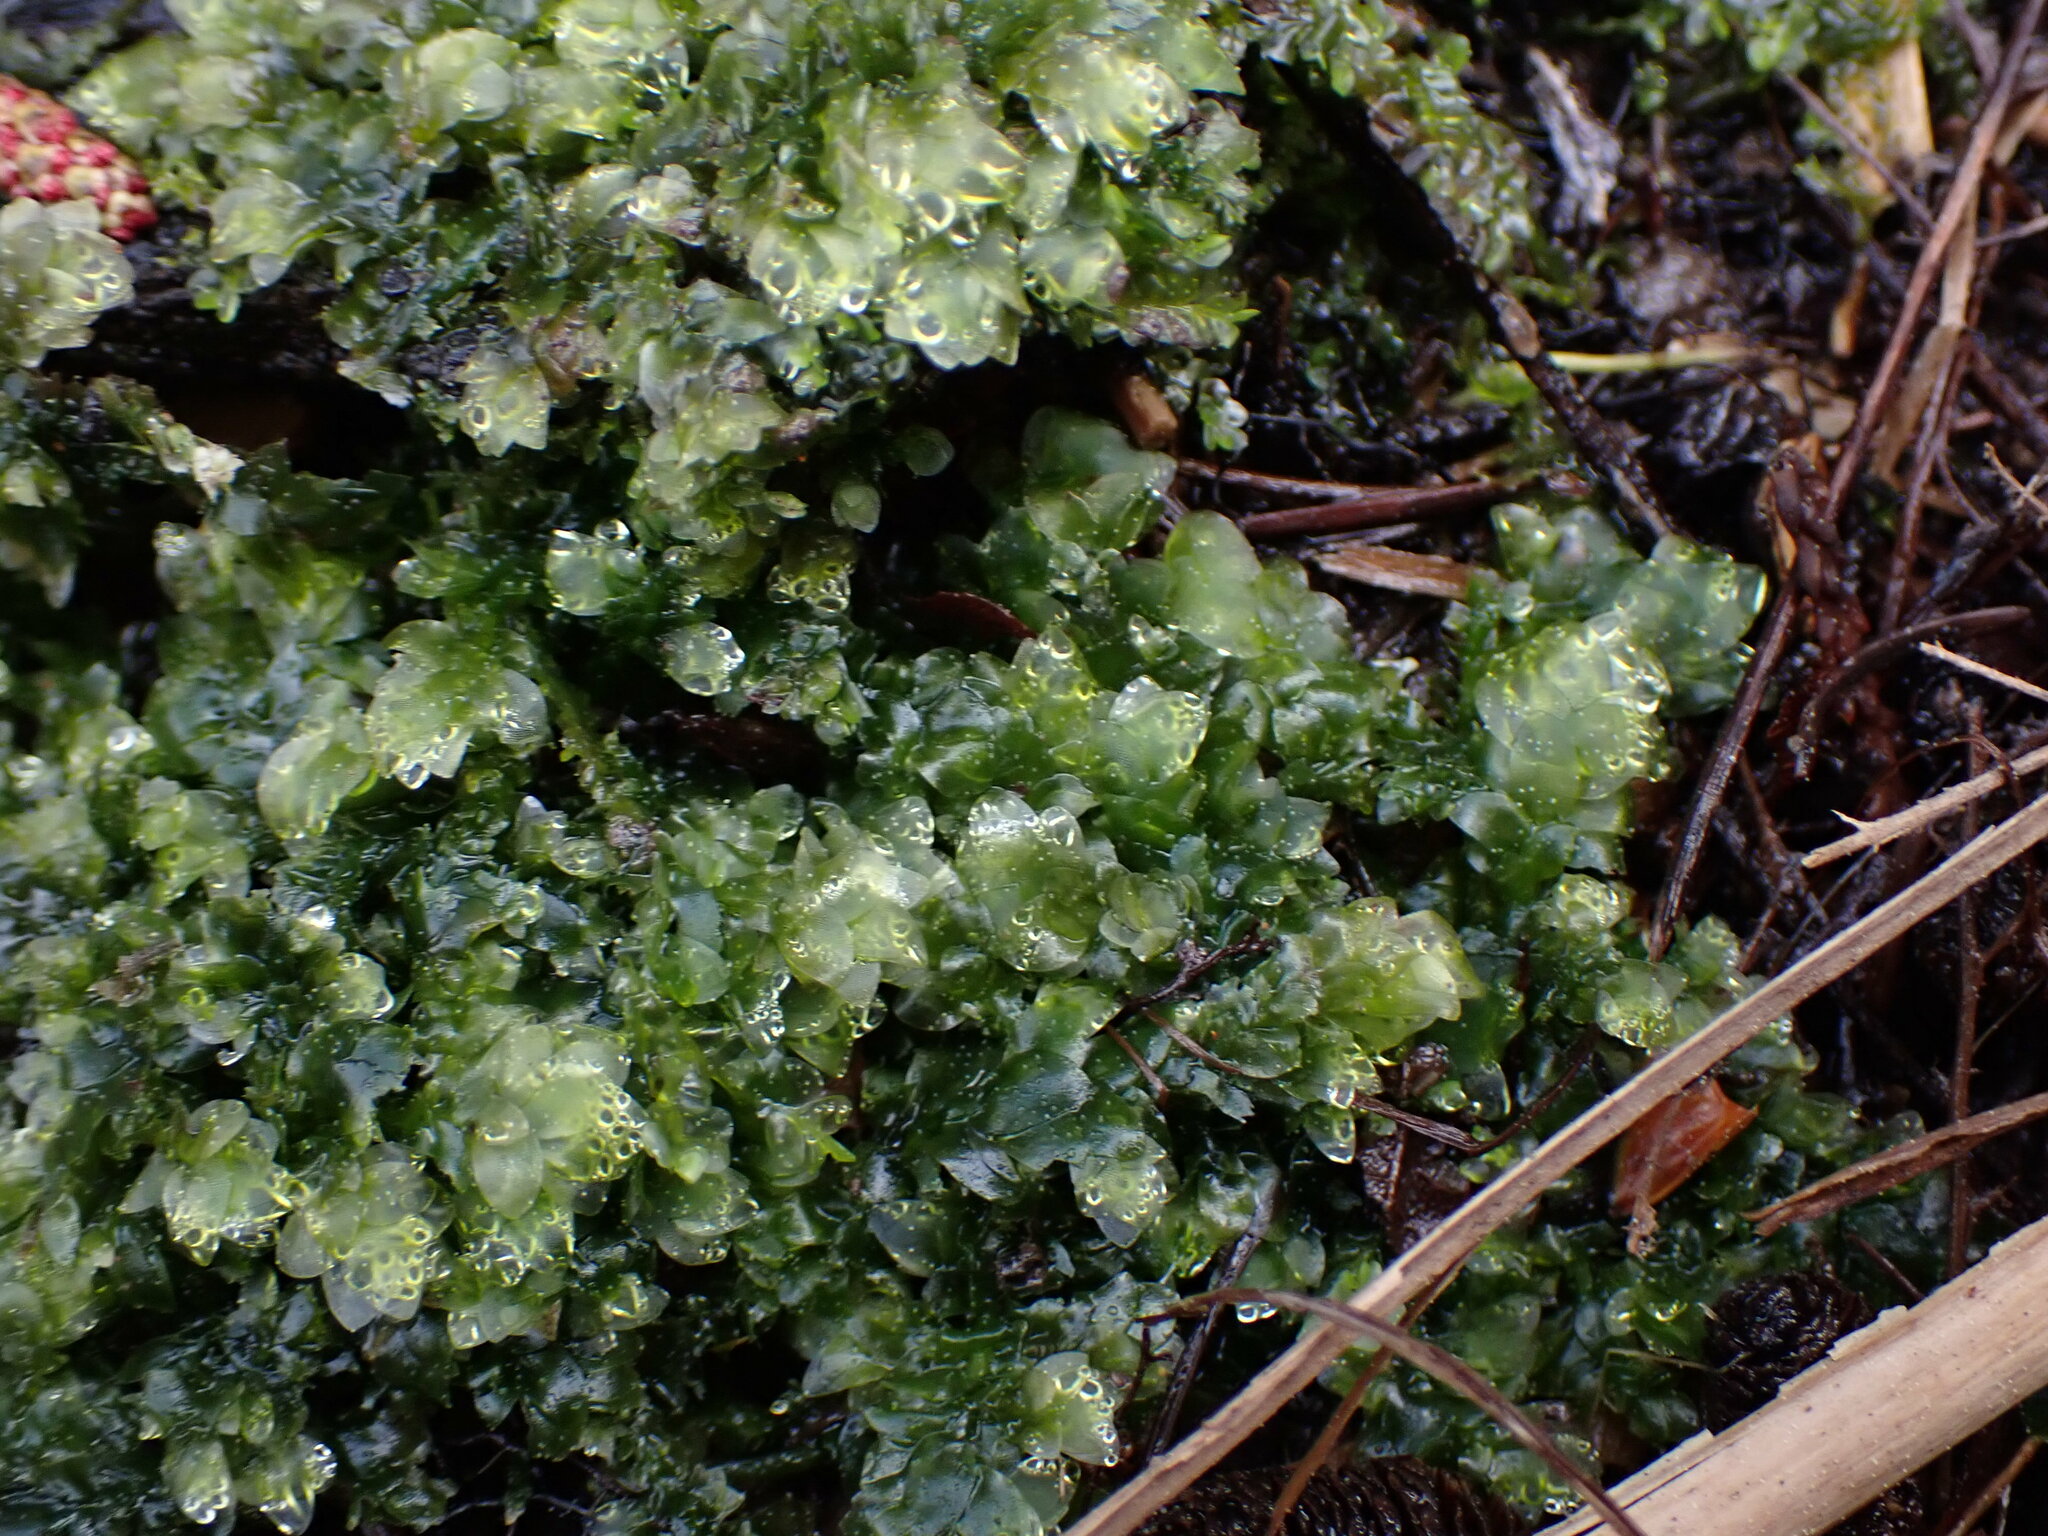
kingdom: Plantae
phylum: Bryophyta
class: Bryopsida
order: Hookeriales
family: Hookeriaceae
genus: Hookeria
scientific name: Hookeria lucens
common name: Shining hookeria
